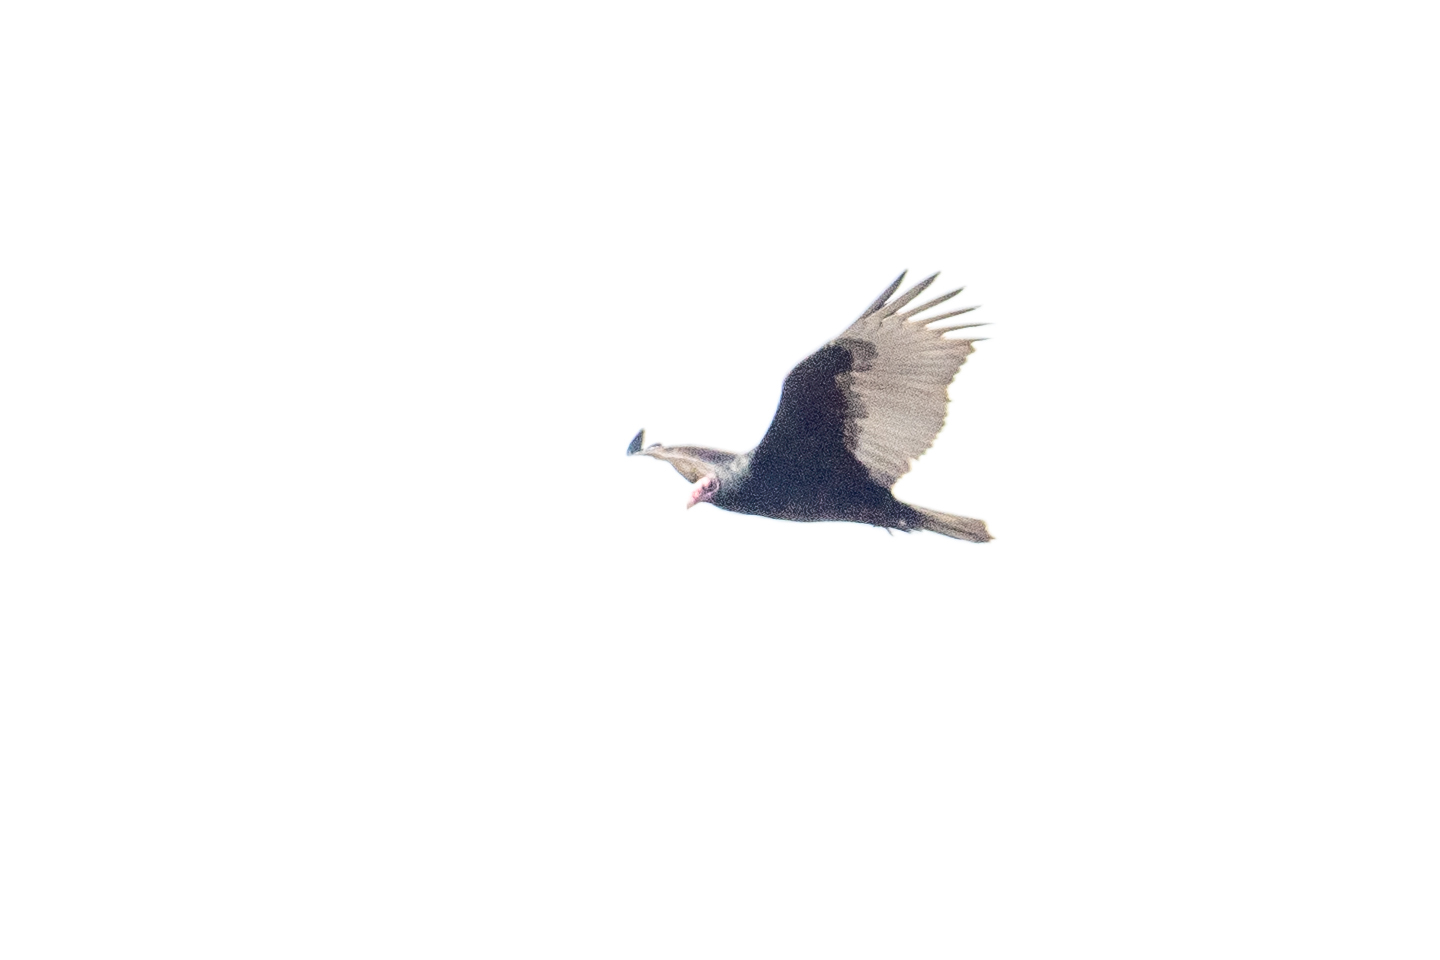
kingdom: Animalia
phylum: Chordata
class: Aves
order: Accipitriformes
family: Cathartidae
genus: Cathartes
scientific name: Cathartes aura
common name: Turkey vulture
